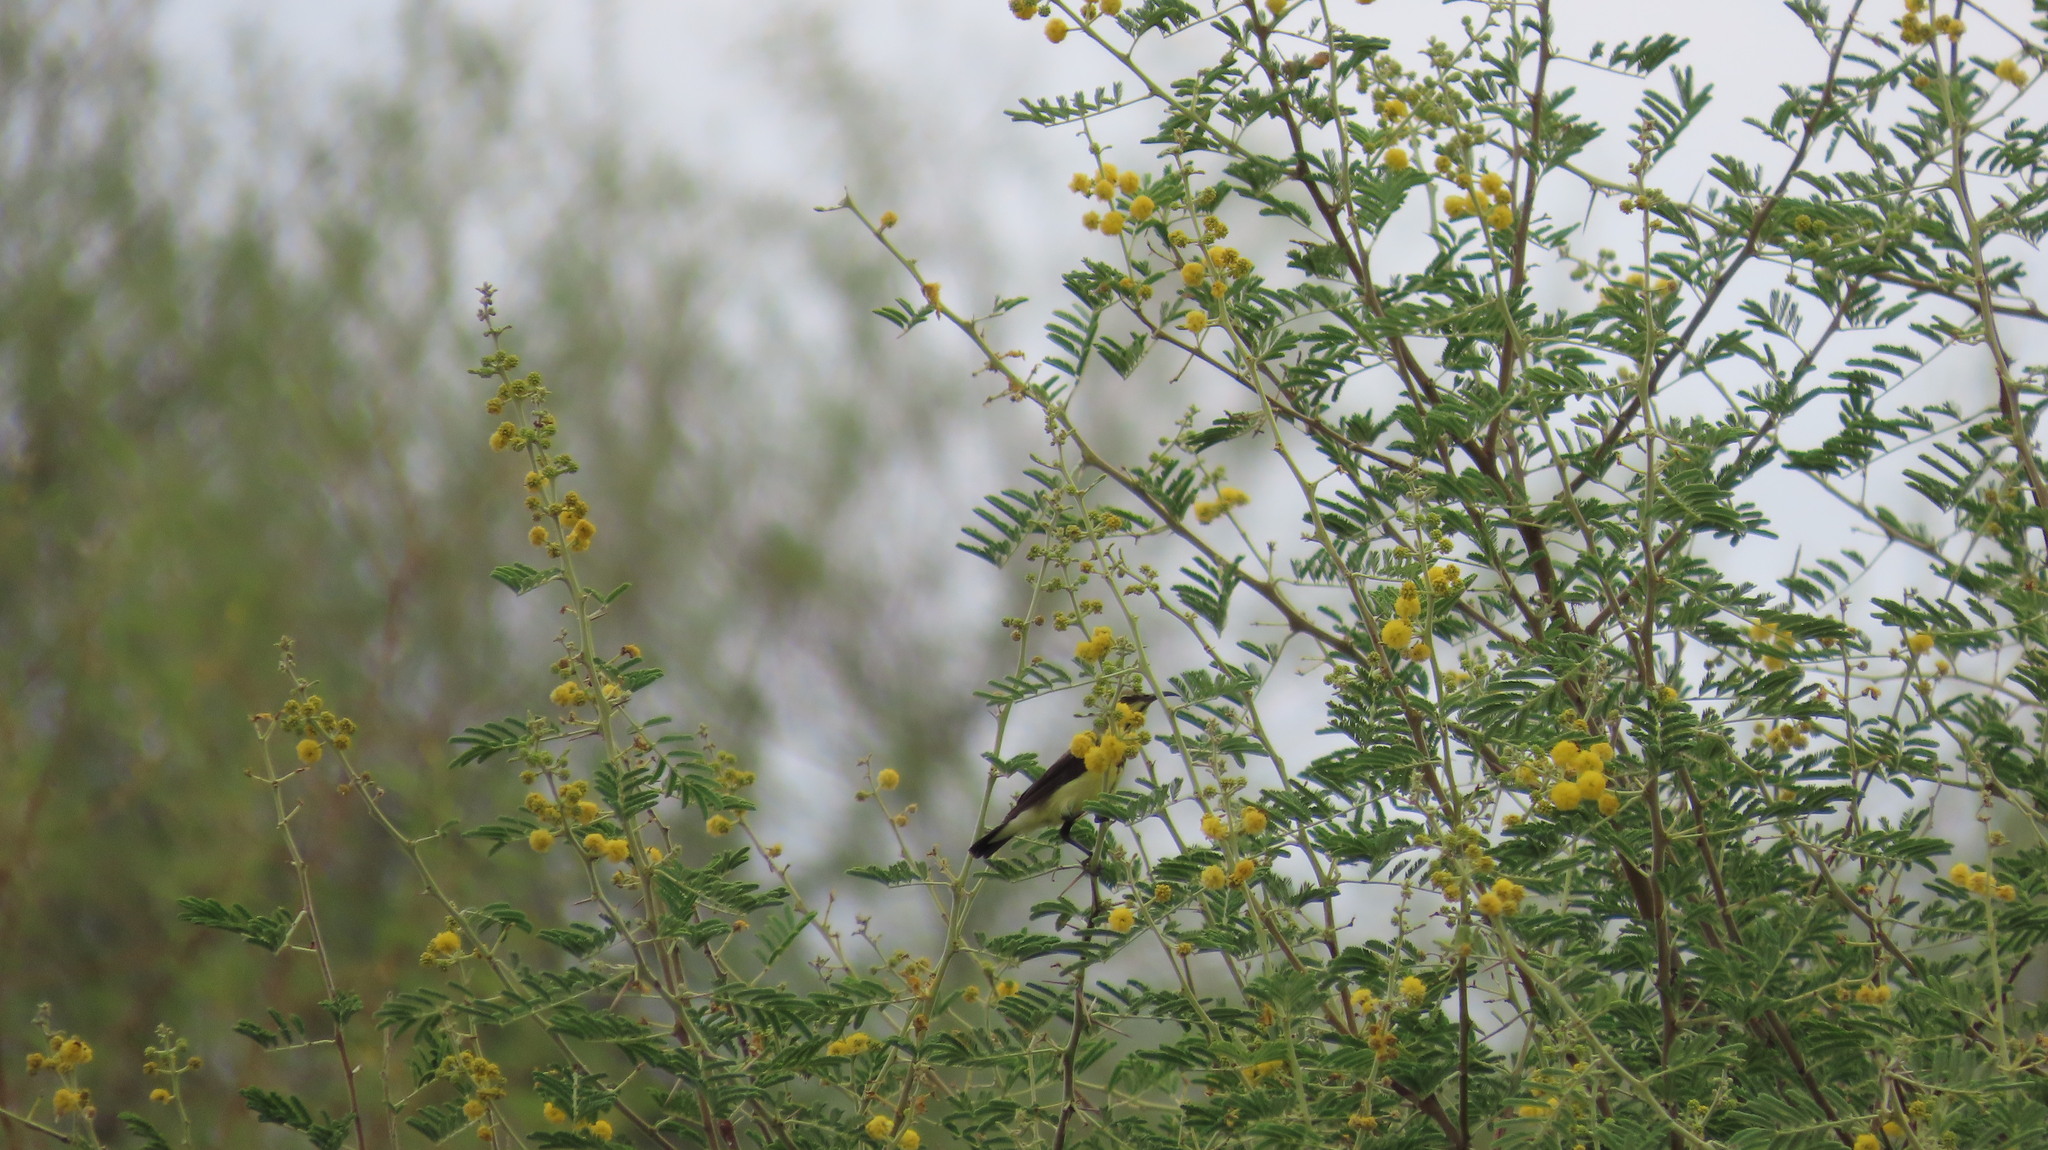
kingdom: Animalia
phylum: Chordata
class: Aves
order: Passeriformes
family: Nectariniidae
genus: Cinnyris
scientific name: Cinnyris asiaticus
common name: Purple sunbird
